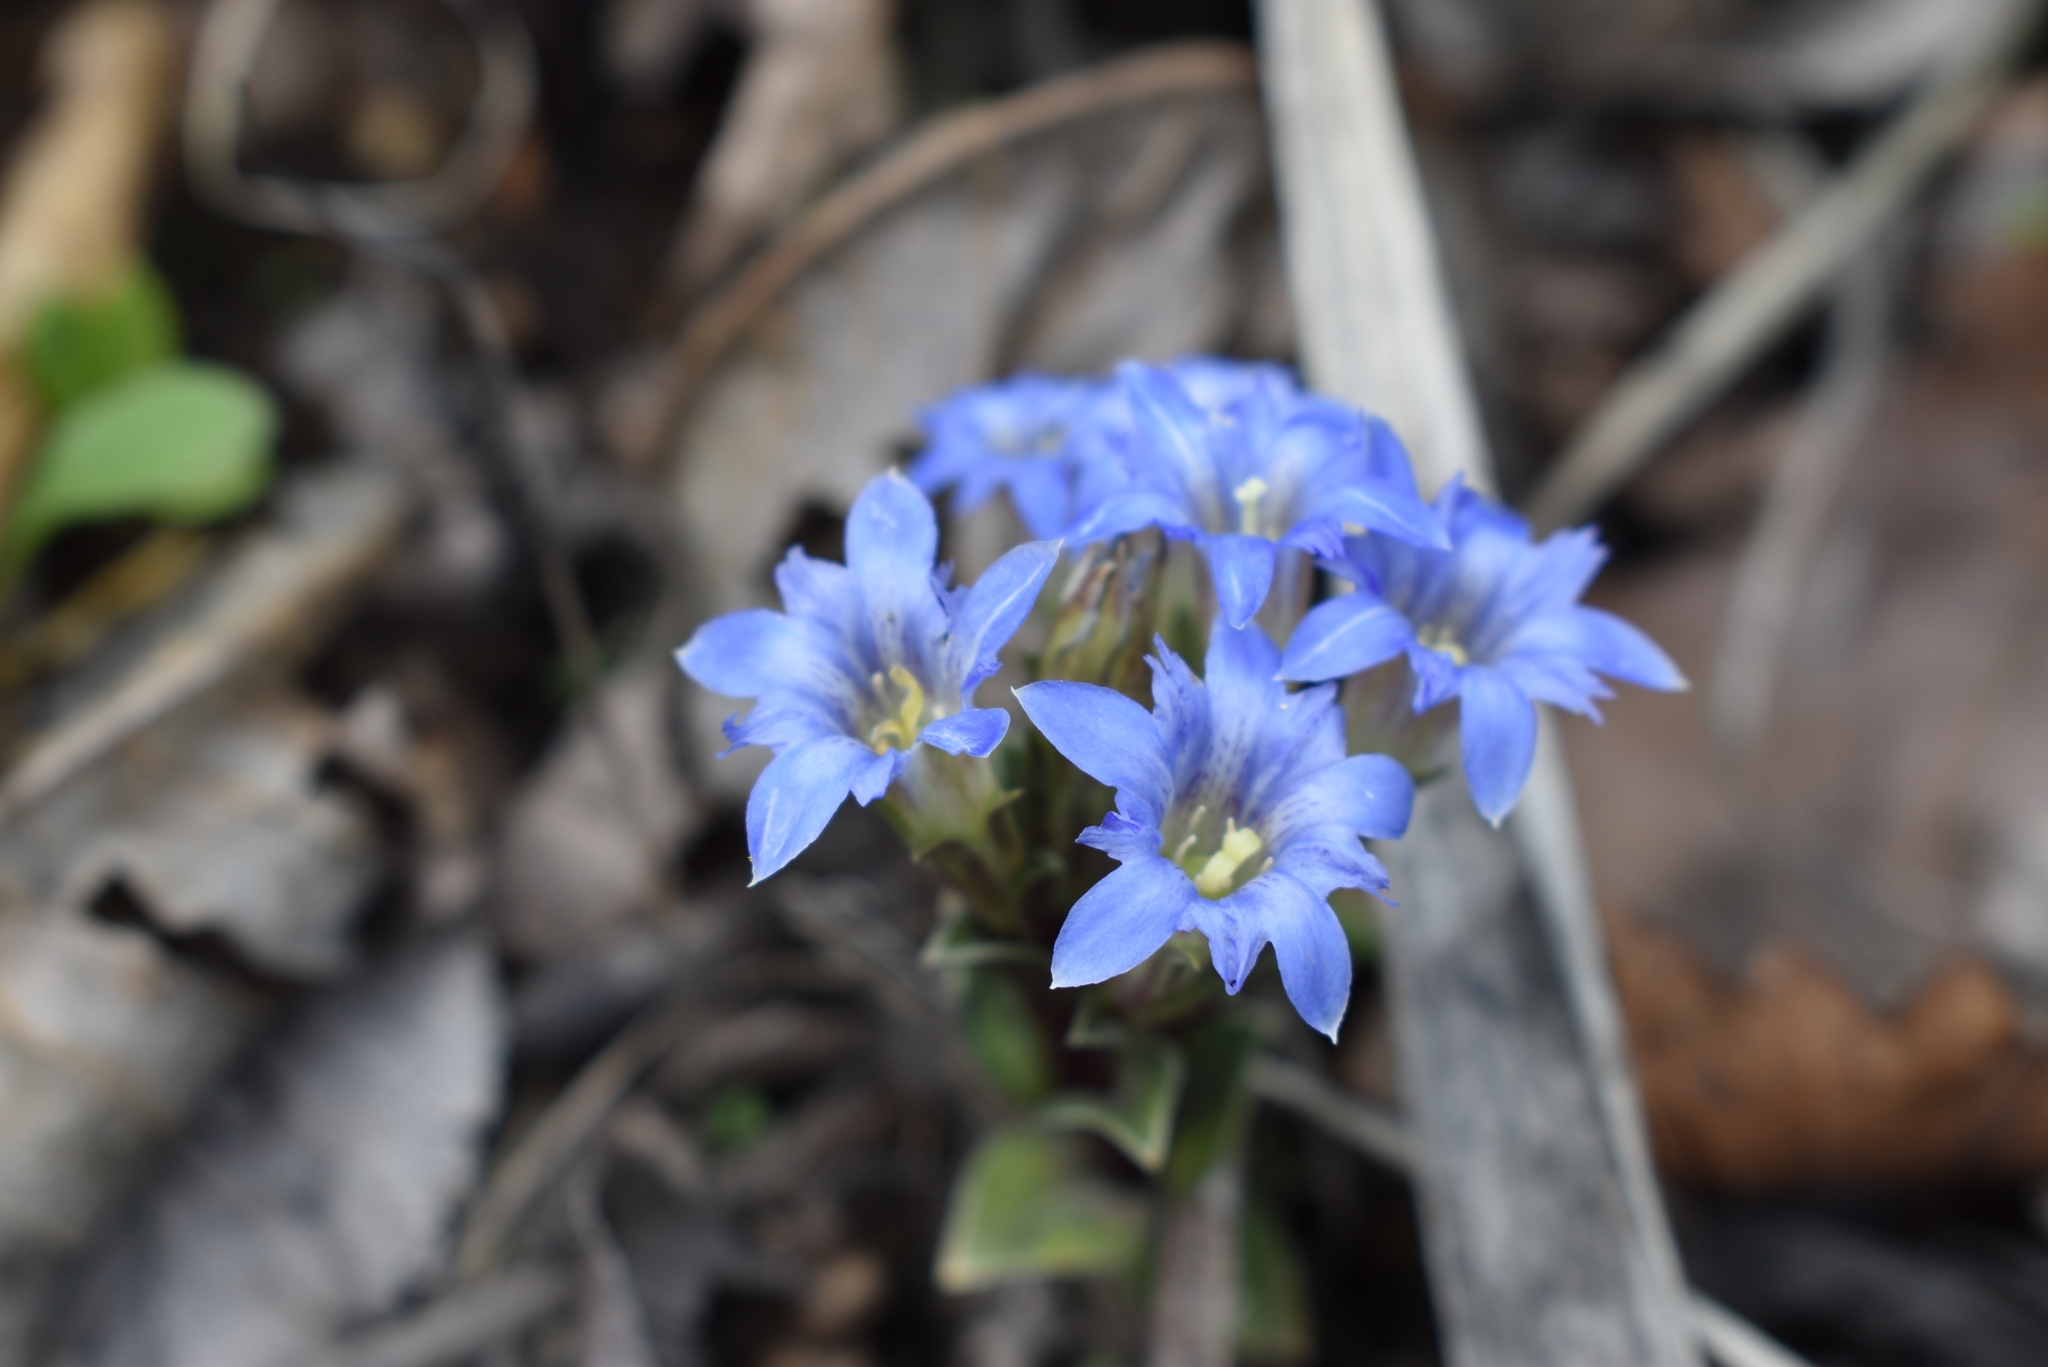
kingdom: Plantae
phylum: Tracheophyta
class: Magnoliopsida
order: Gentianales
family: Gentianaceae
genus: Gentiana
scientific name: Gentiana zollingeri
